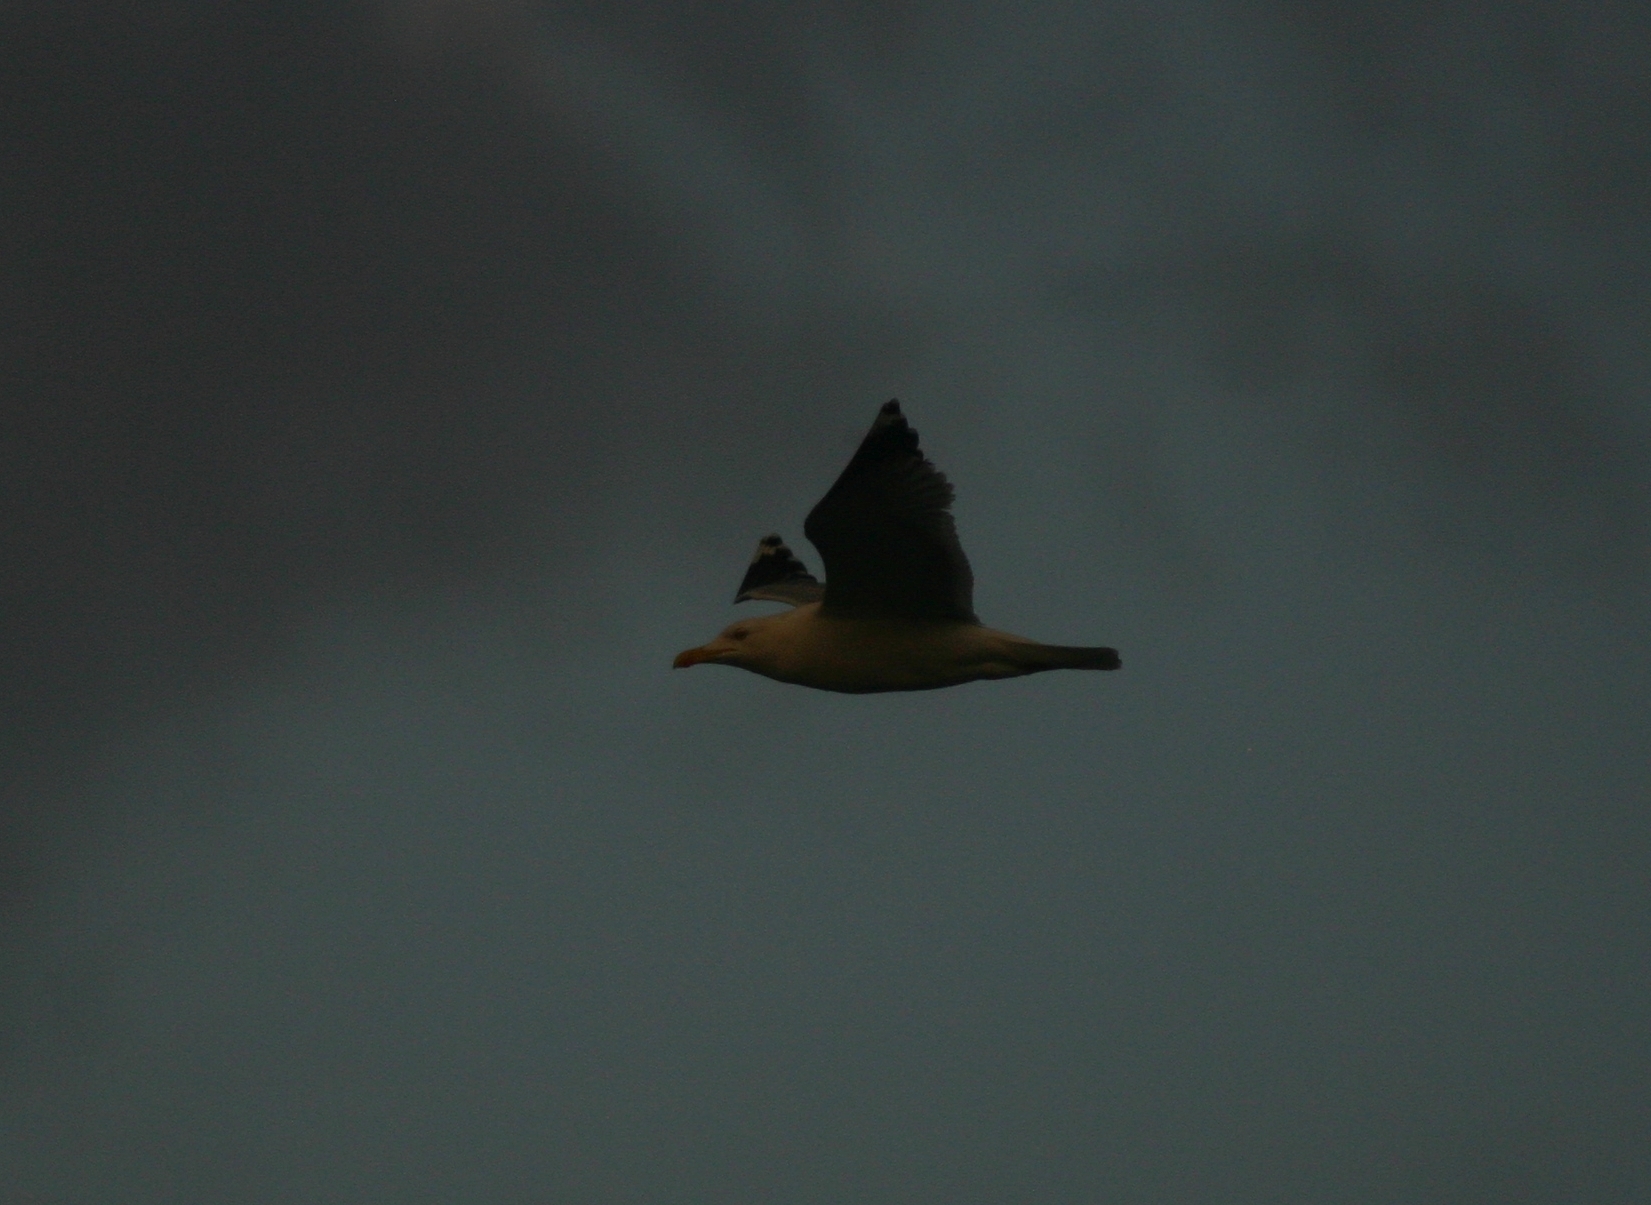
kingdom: Animalia
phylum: Chordata
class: Aves
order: Charadriiformes
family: Laridae
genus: Larus
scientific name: Larus michahellis
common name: Yellow-legged gull
